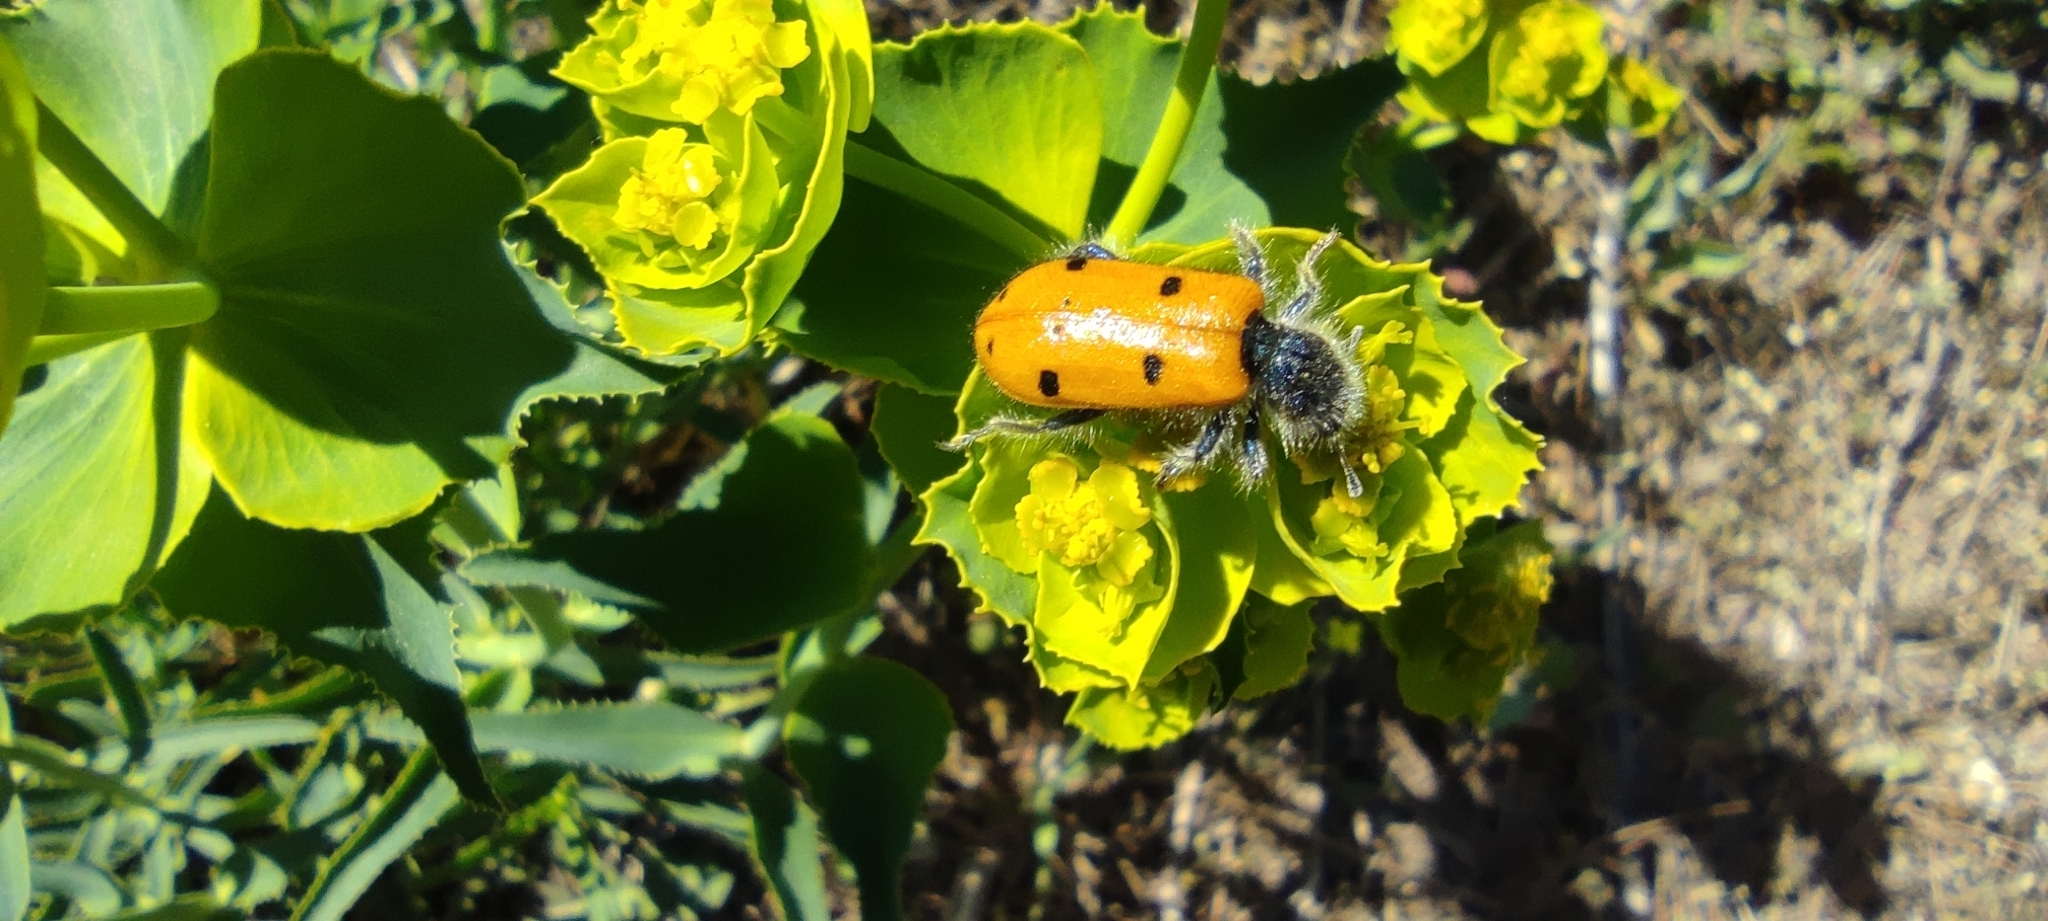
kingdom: Animalia
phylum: Arthropoda
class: Insecta
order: Coleoptera
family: Cleridae
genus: Trichodes
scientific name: Trichodes octopunctatus
